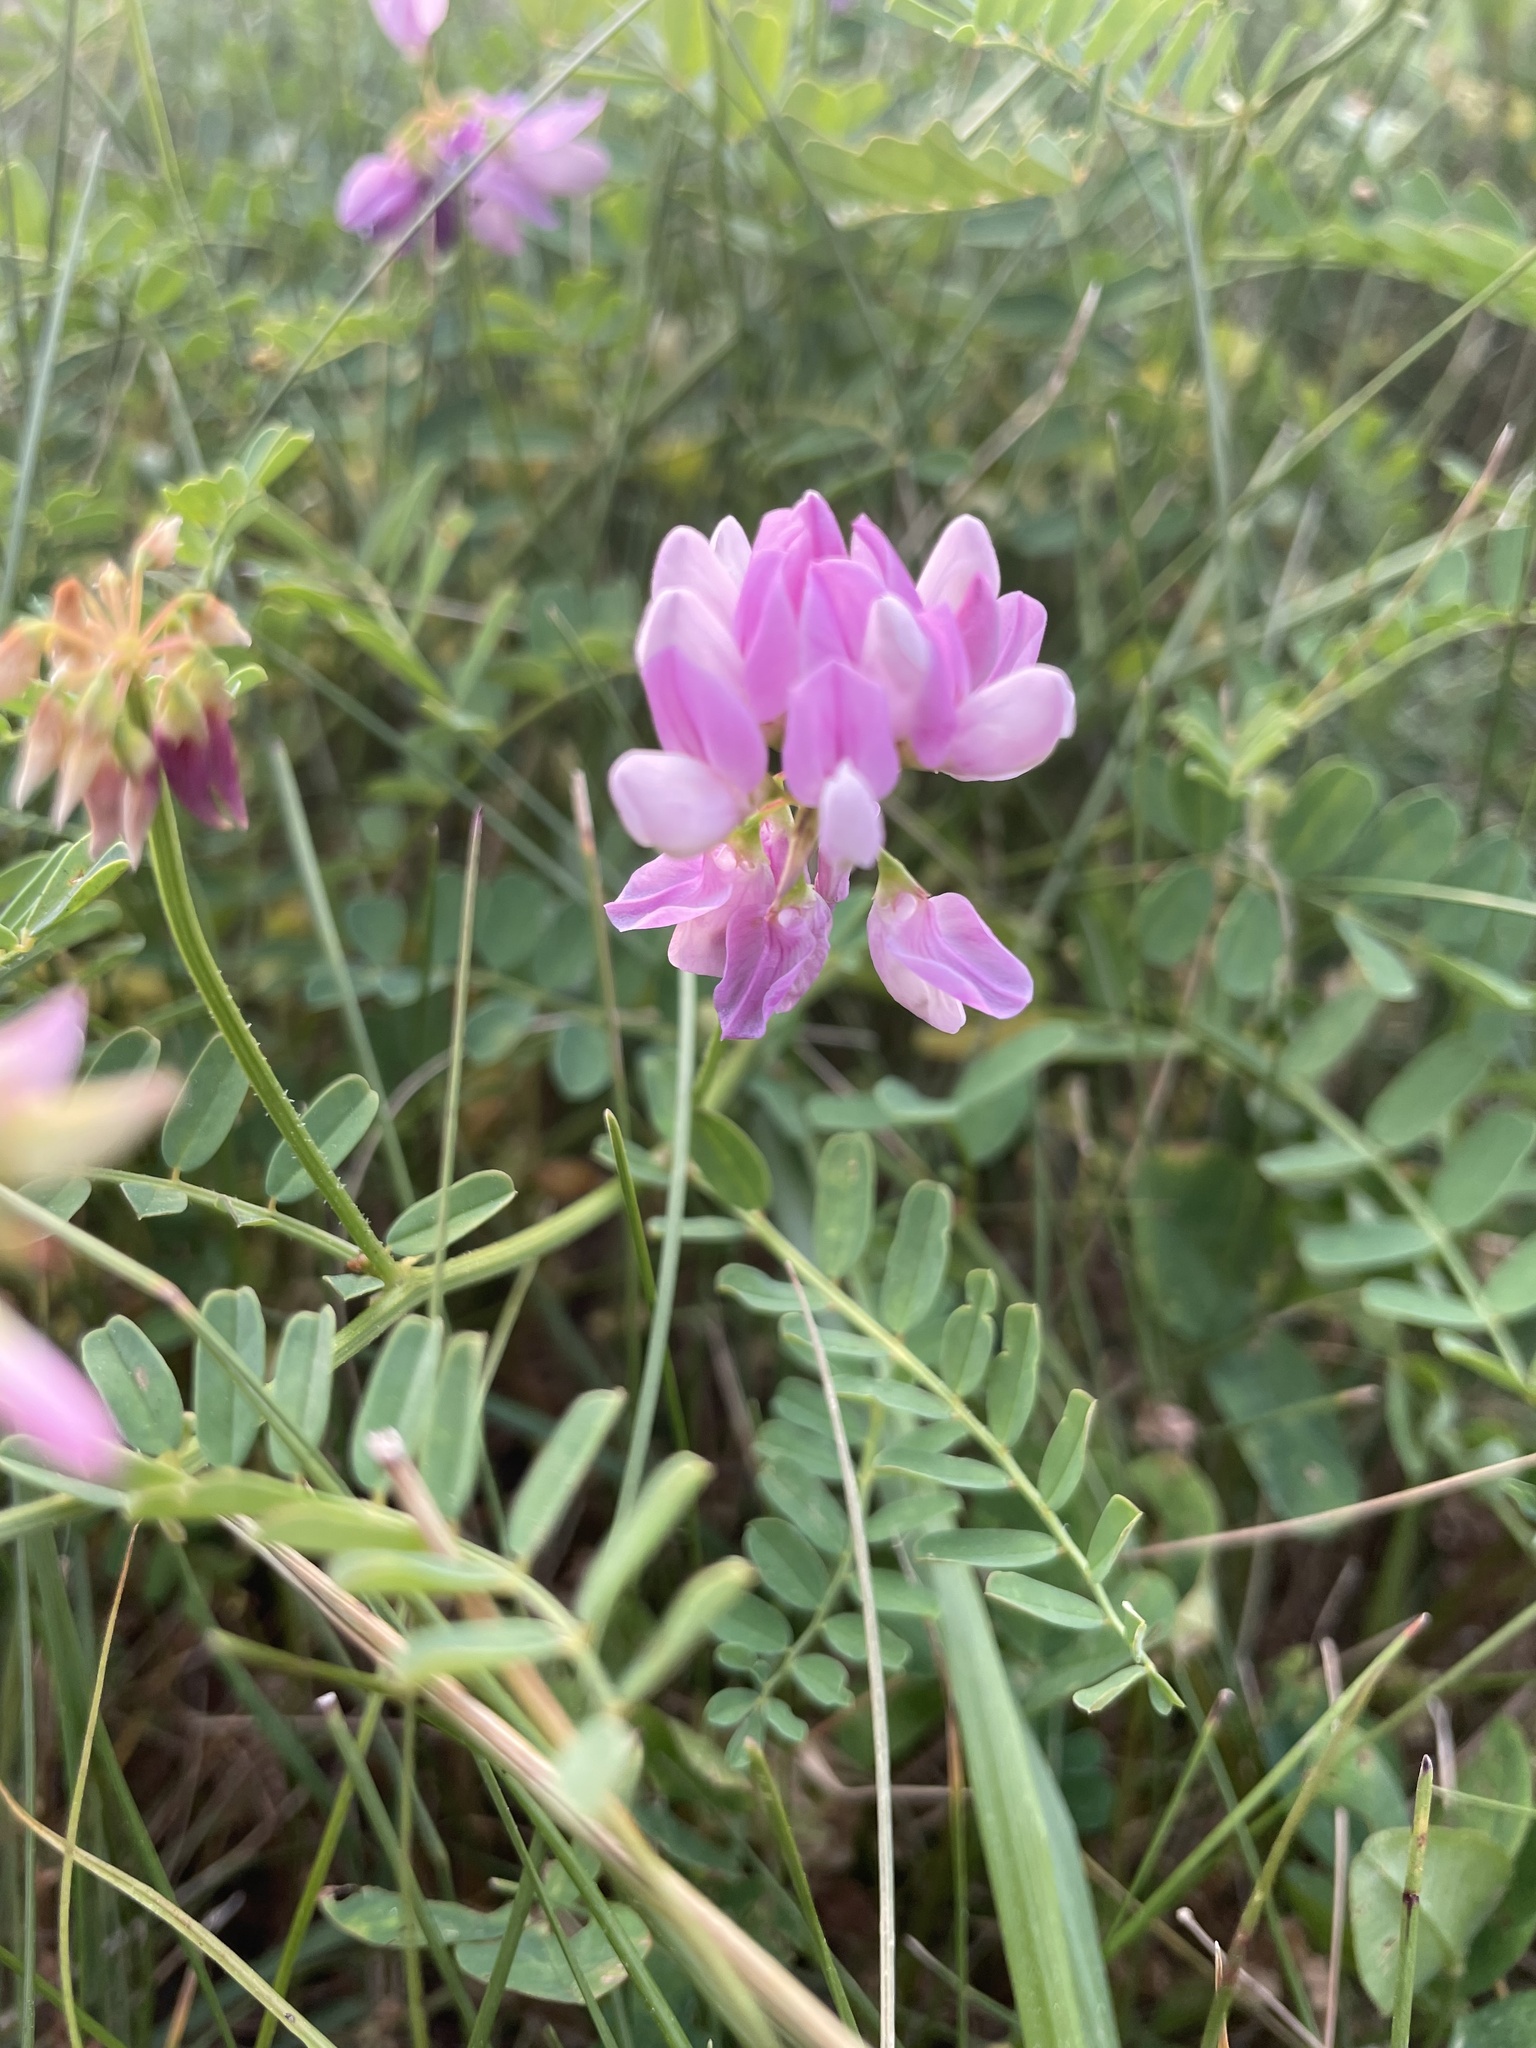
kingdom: Plantae
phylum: Tracheophyta
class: Magnoliopsida
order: Fabales
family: Fabaceae
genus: Coronilla
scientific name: Coronilla varia
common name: Crownvetch
